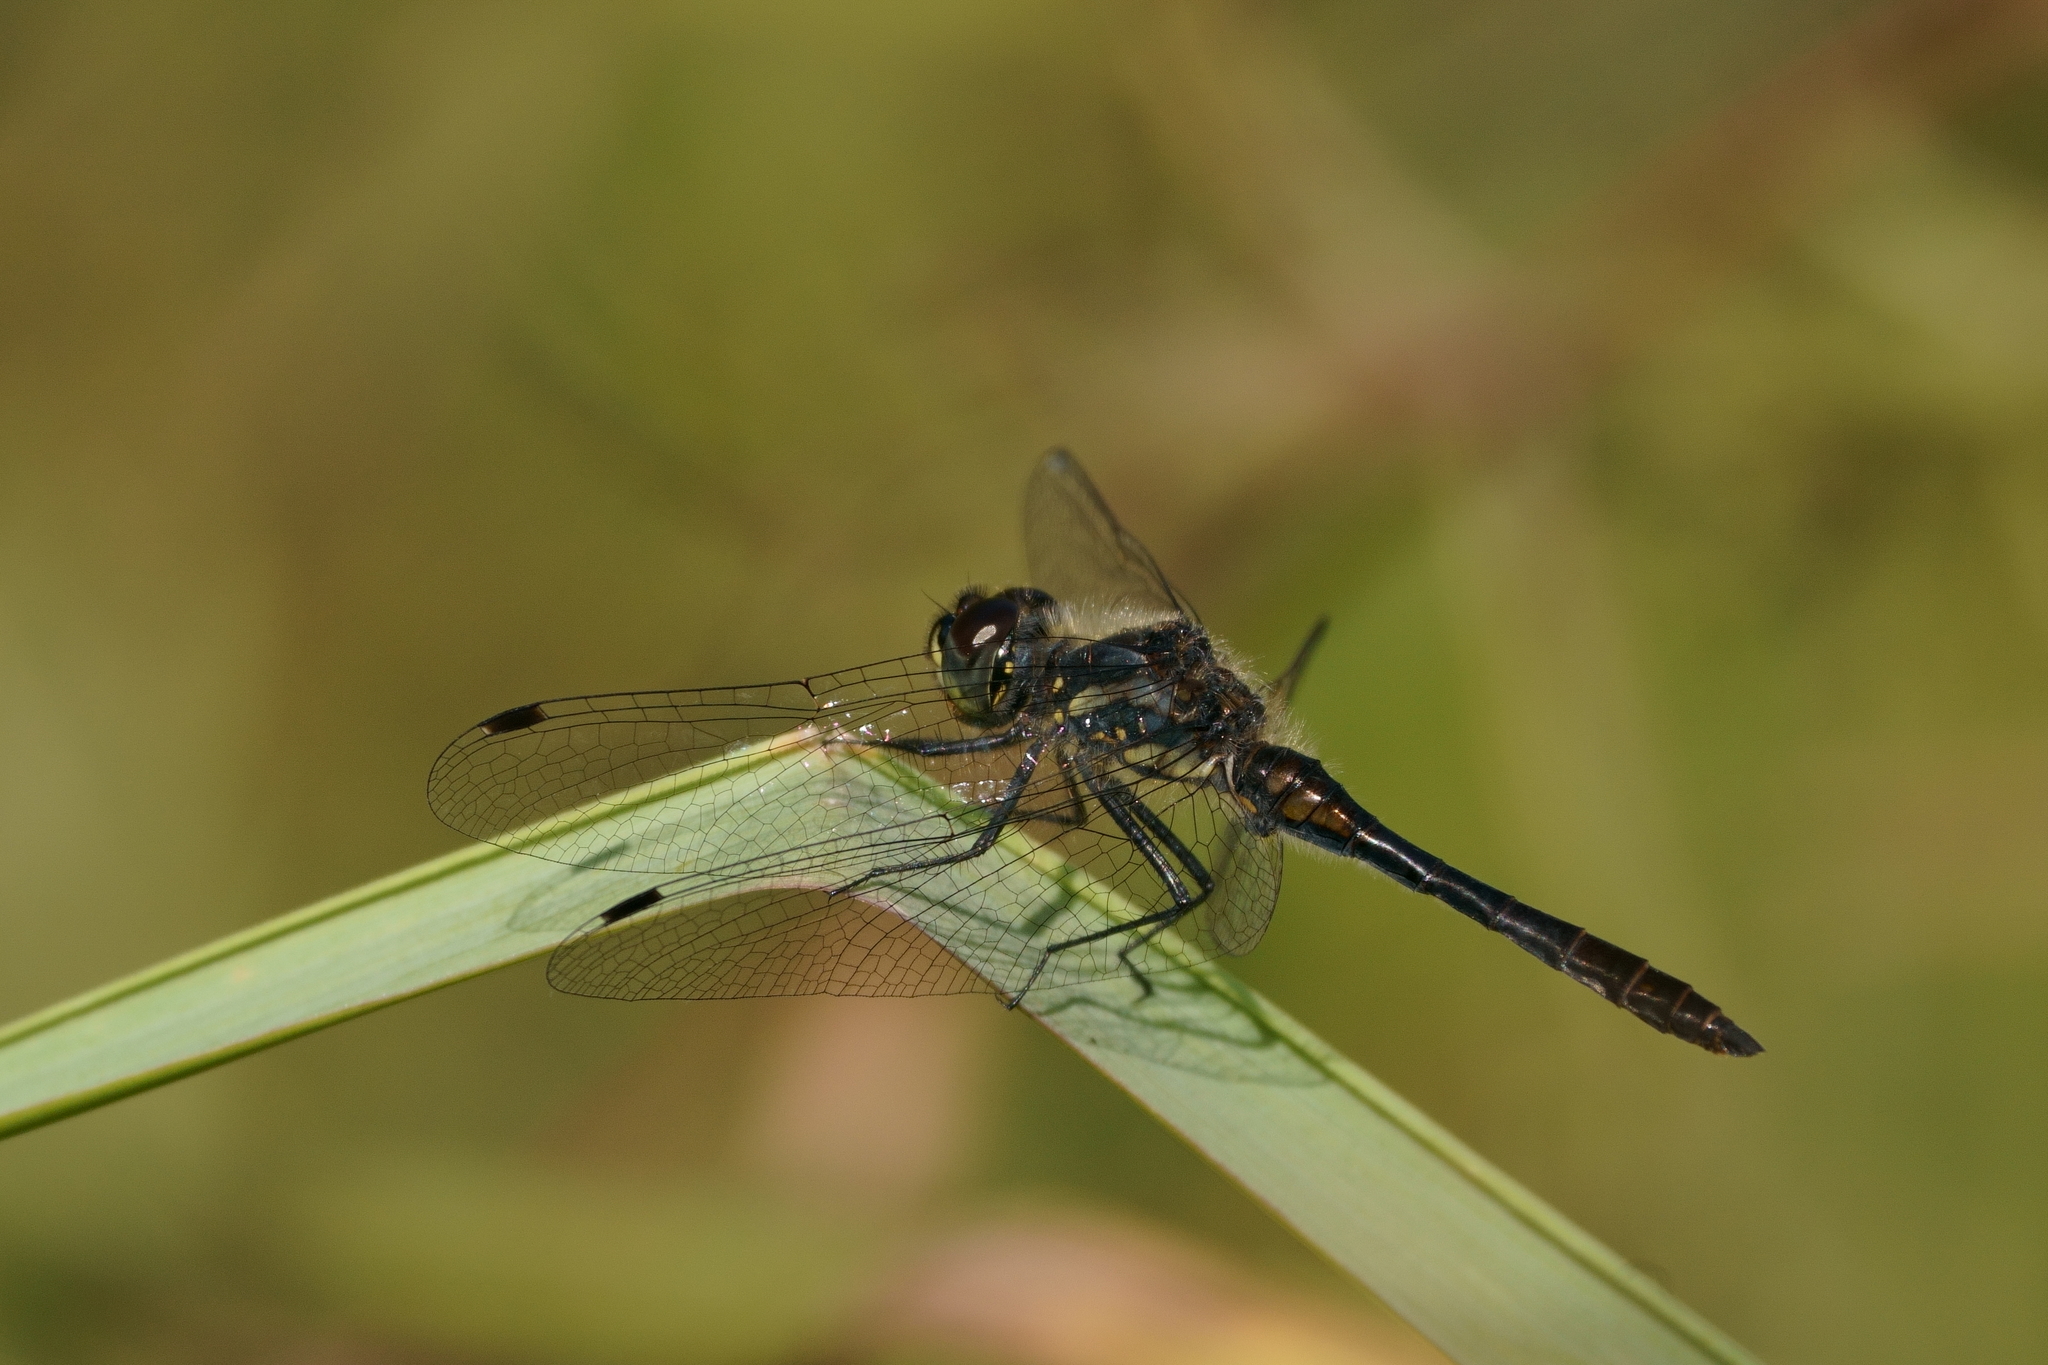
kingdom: Animalia
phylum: Arthropoda
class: Insecta
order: Odonata
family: Libellulidae
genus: Sympetrum
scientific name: Sympetrum danae
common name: Black darter
